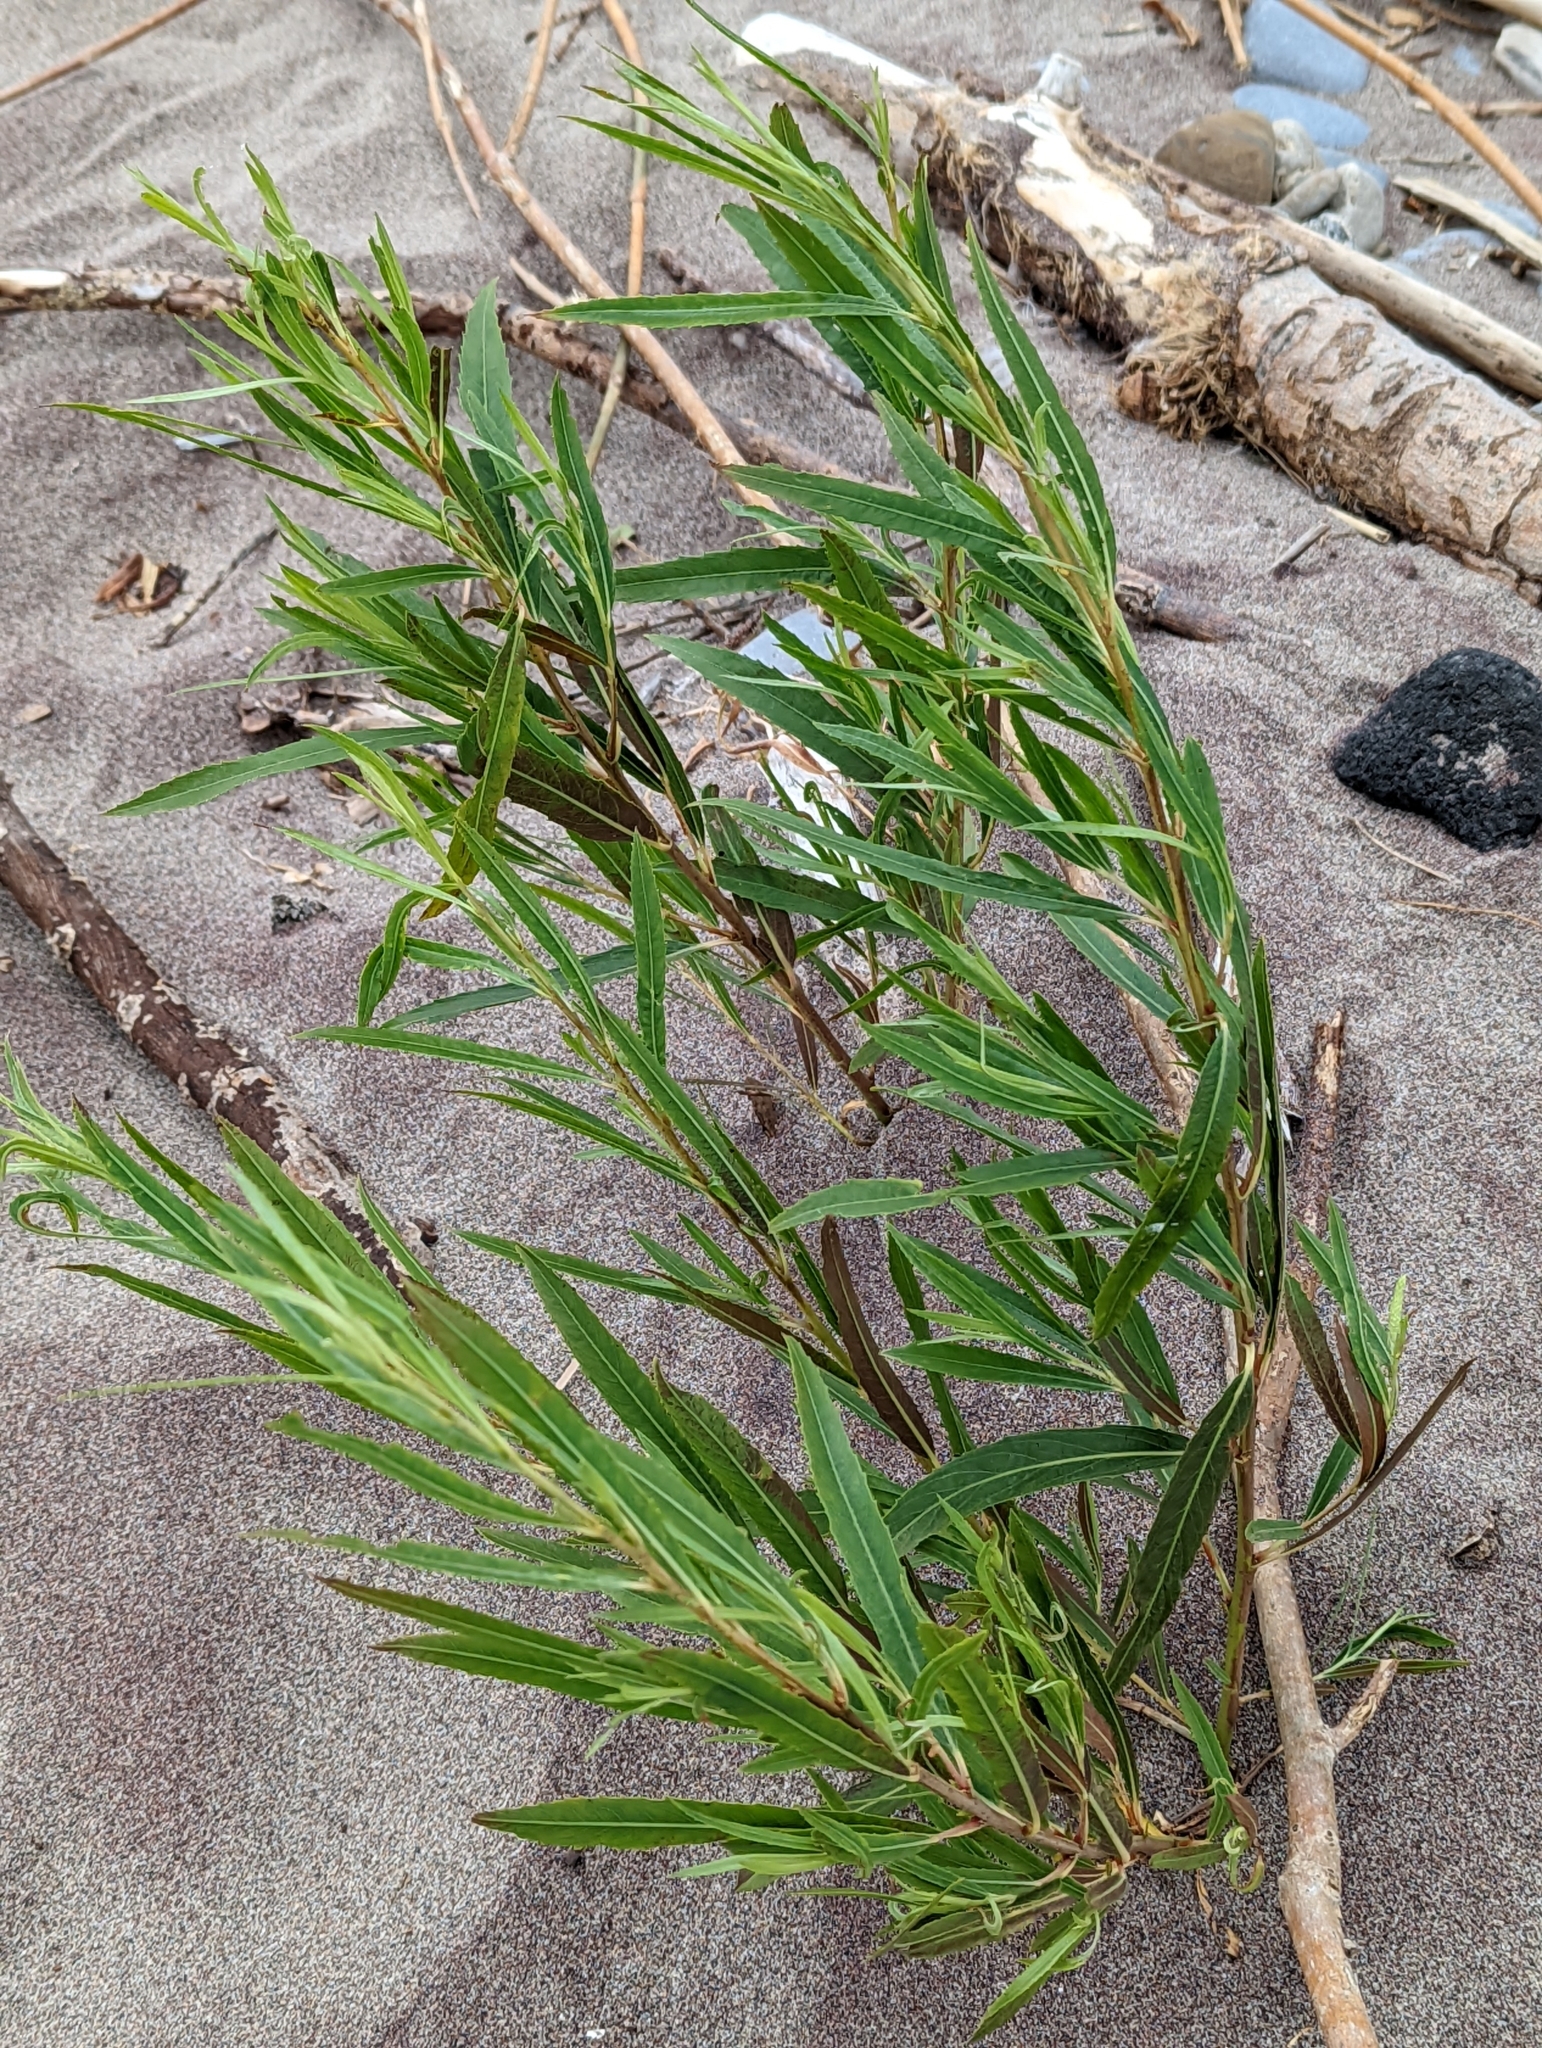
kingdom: Plantae
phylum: Tracheophyta
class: Magnoliopsida
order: Malpighiales
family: Salicaceae
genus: Salix
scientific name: Salix interior
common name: Sandbar willow
